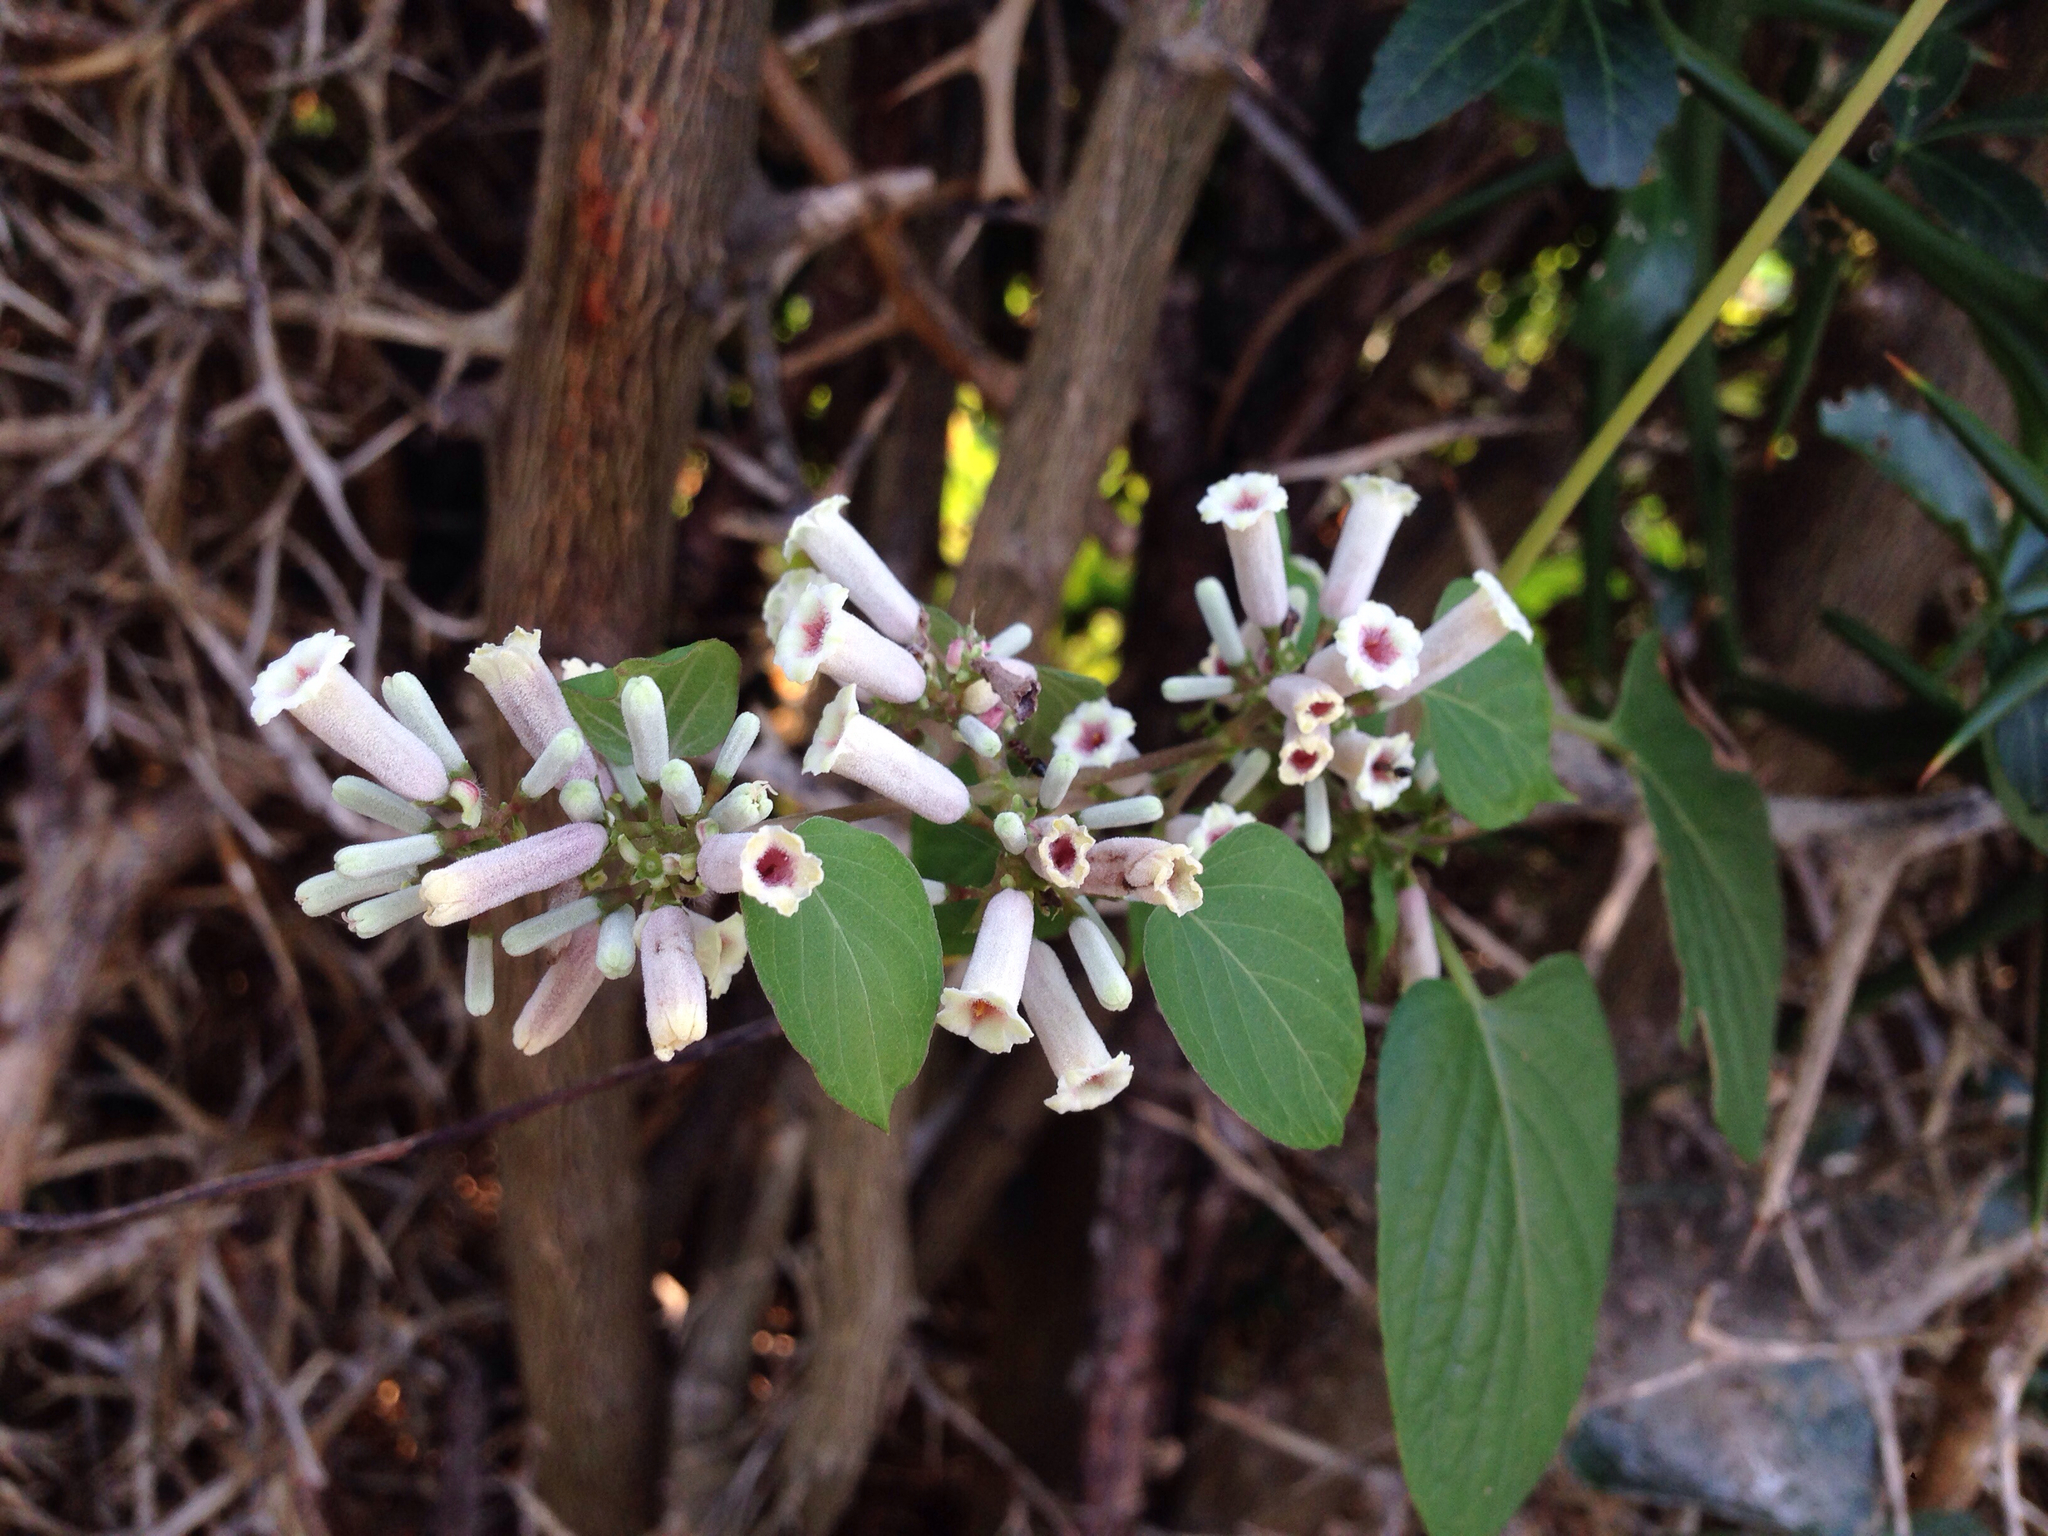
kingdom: Plantae
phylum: Tracheophyta
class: Magnoliopsida
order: Gentianales
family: Rubiaceae
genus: Paederia
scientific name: Paederia foetida
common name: Stinkvine
